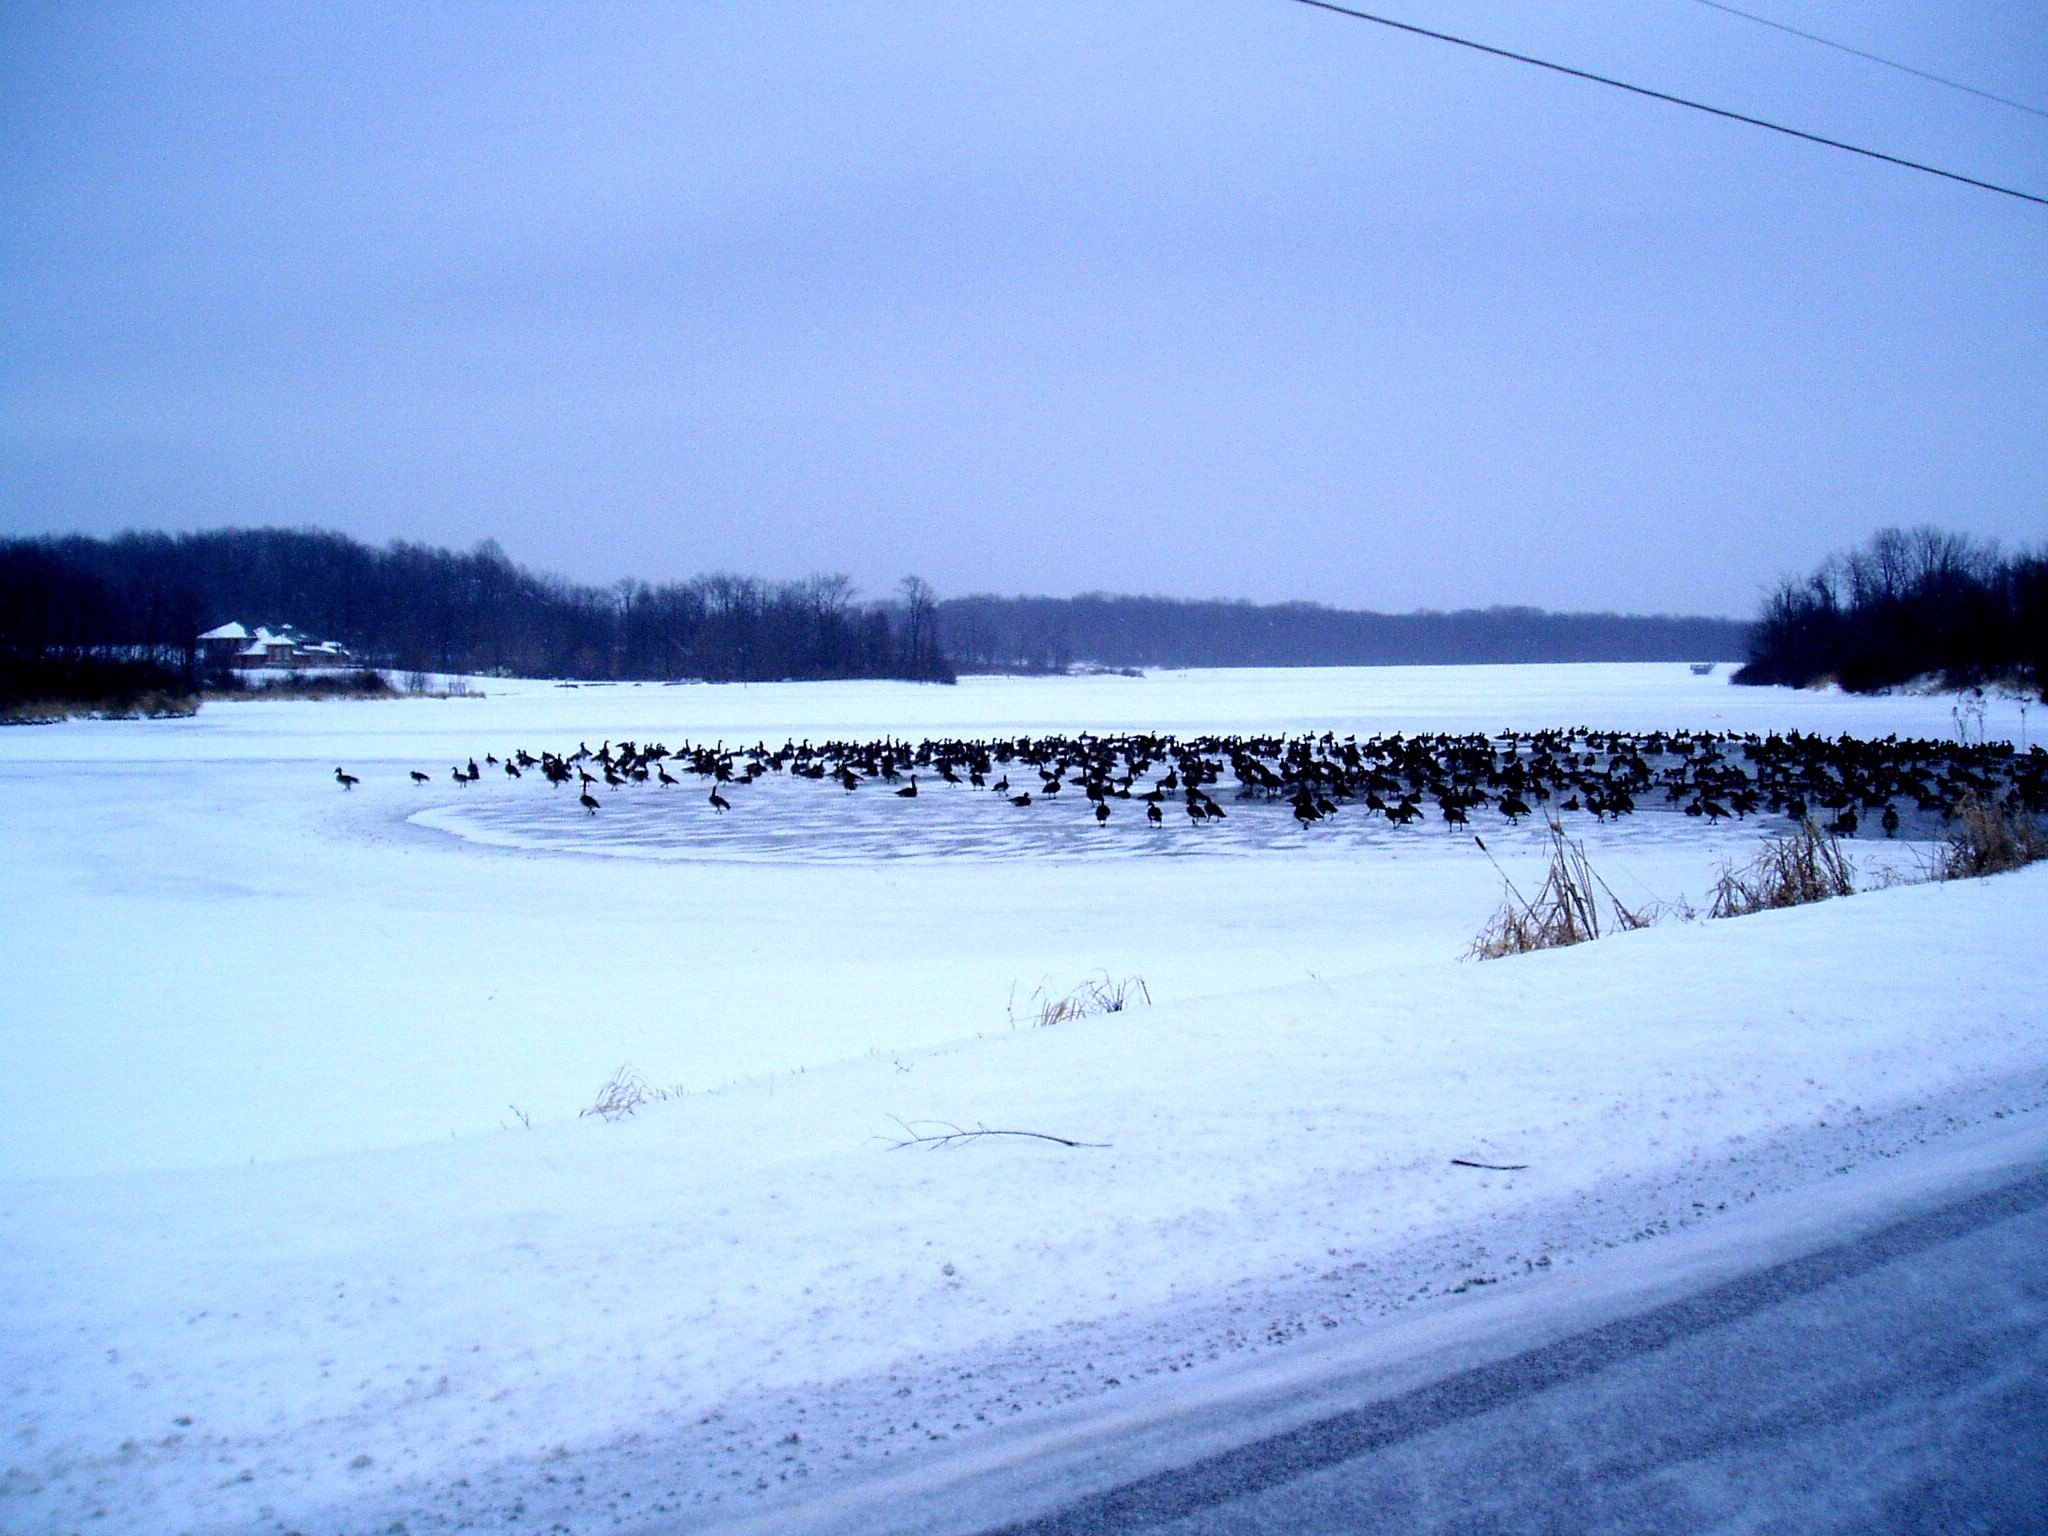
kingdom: Animalia
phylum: Chordata
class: Aves
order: Anseriformes
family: Anatidae
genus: Branta
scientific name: Branta canadensis
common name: Canada goose
